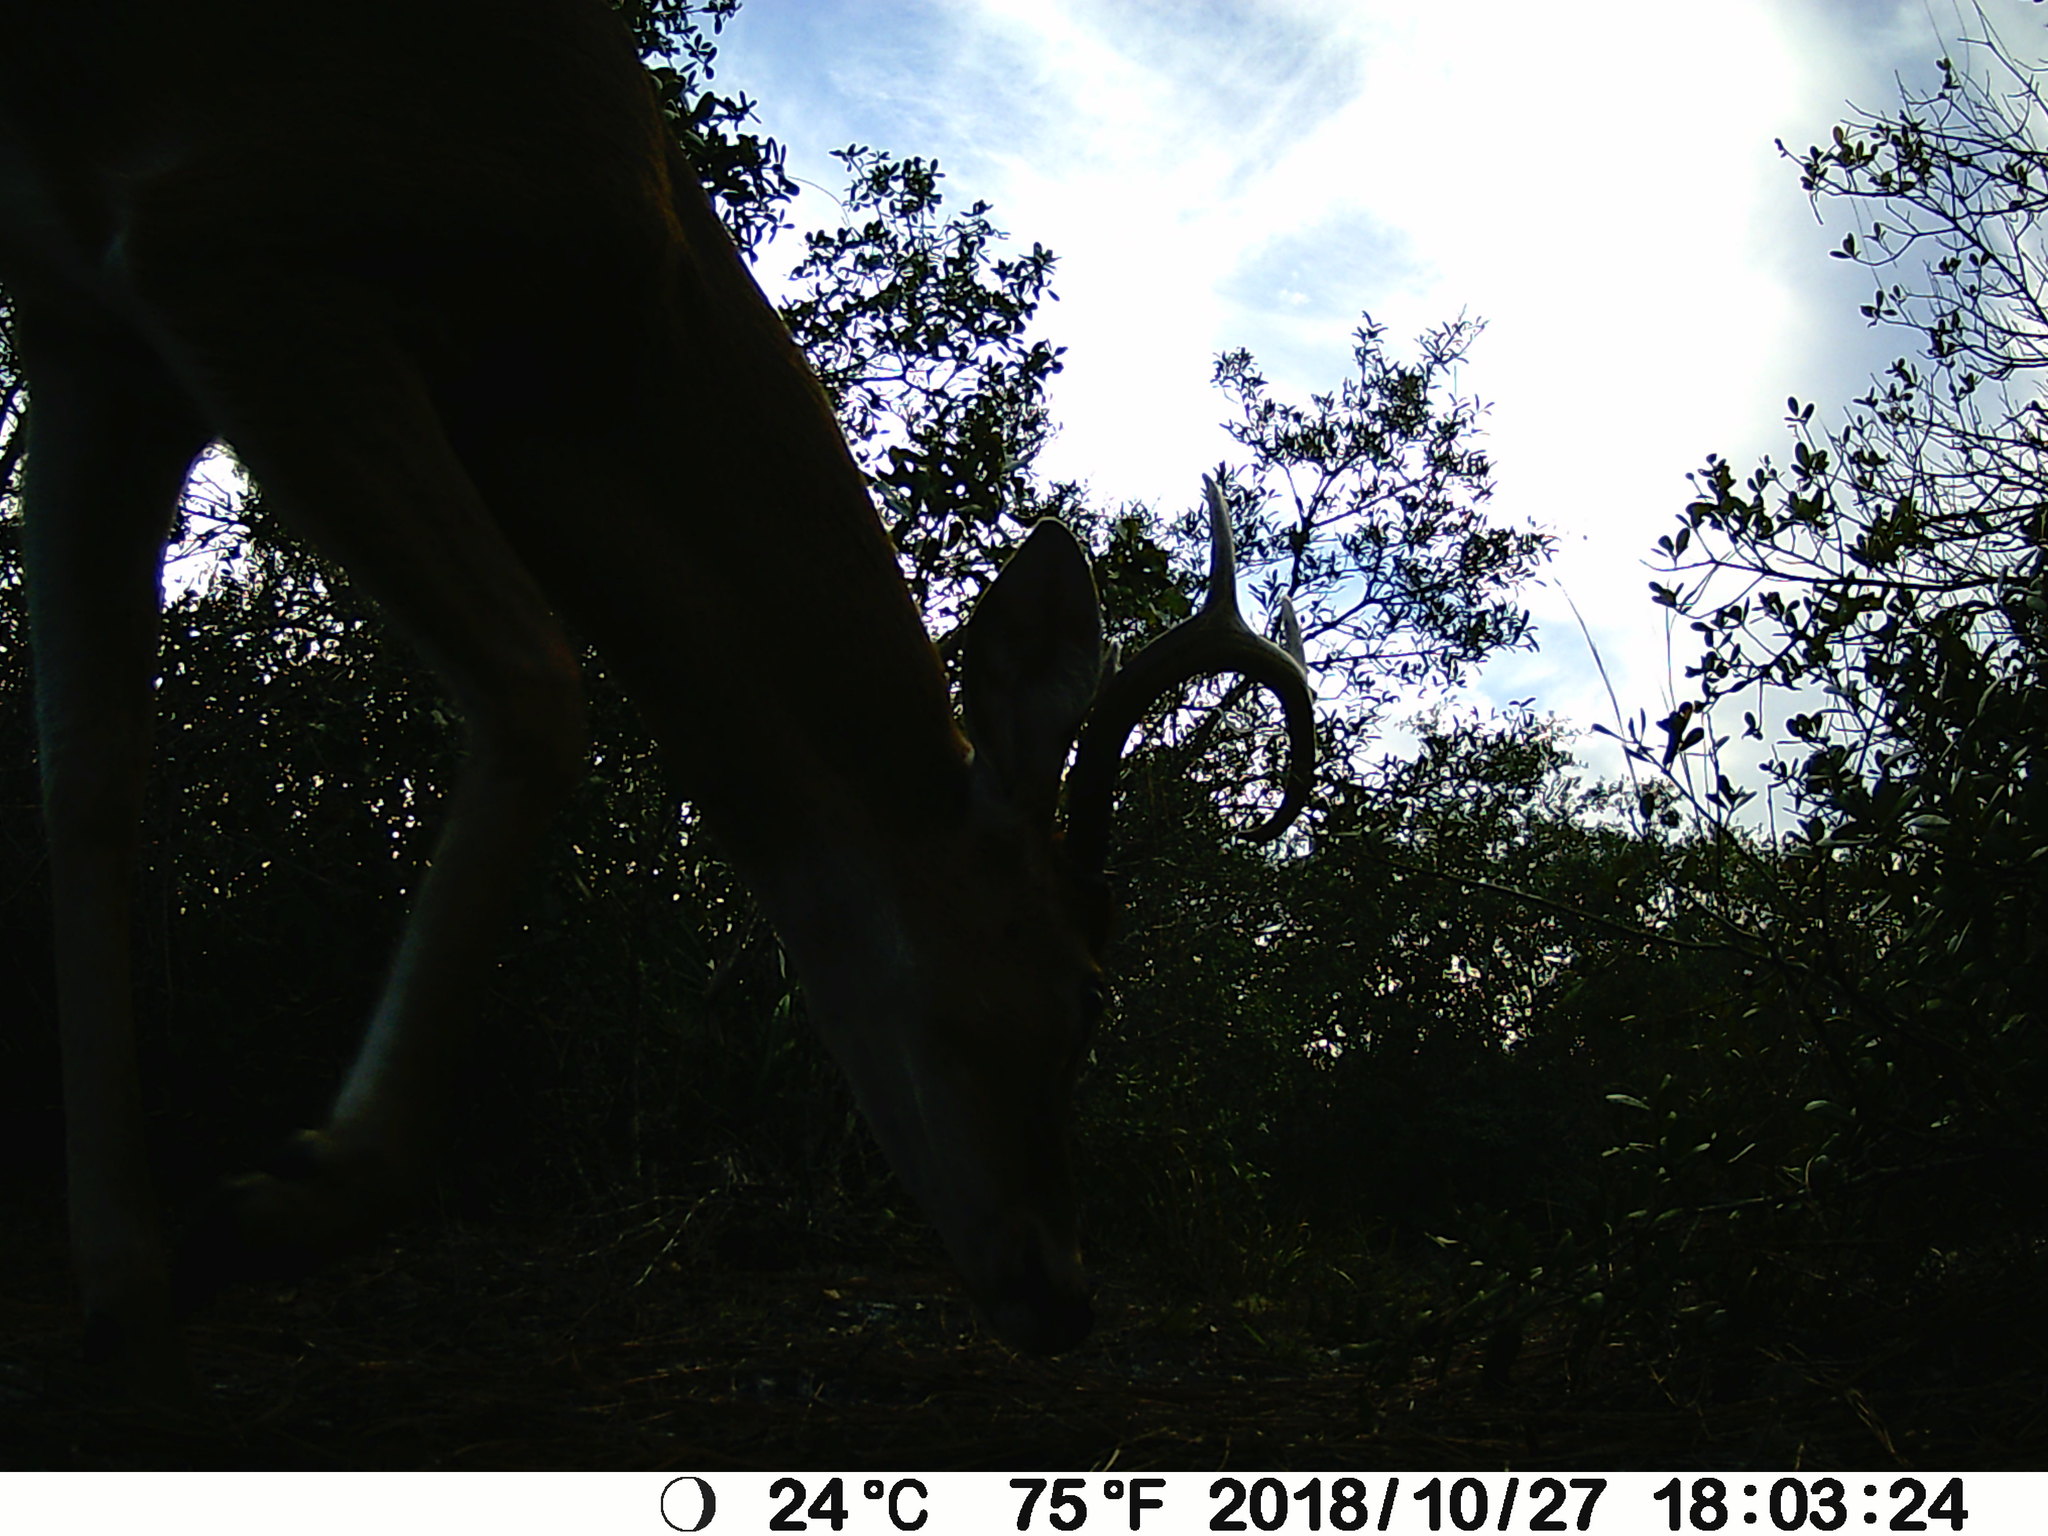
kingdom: Animalia
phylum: Chordata
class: Mammalia
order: Artiodactyla
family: Cervidae
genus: Odocoileus
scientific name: Odocoileus virginianus
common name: White-tailed deer
